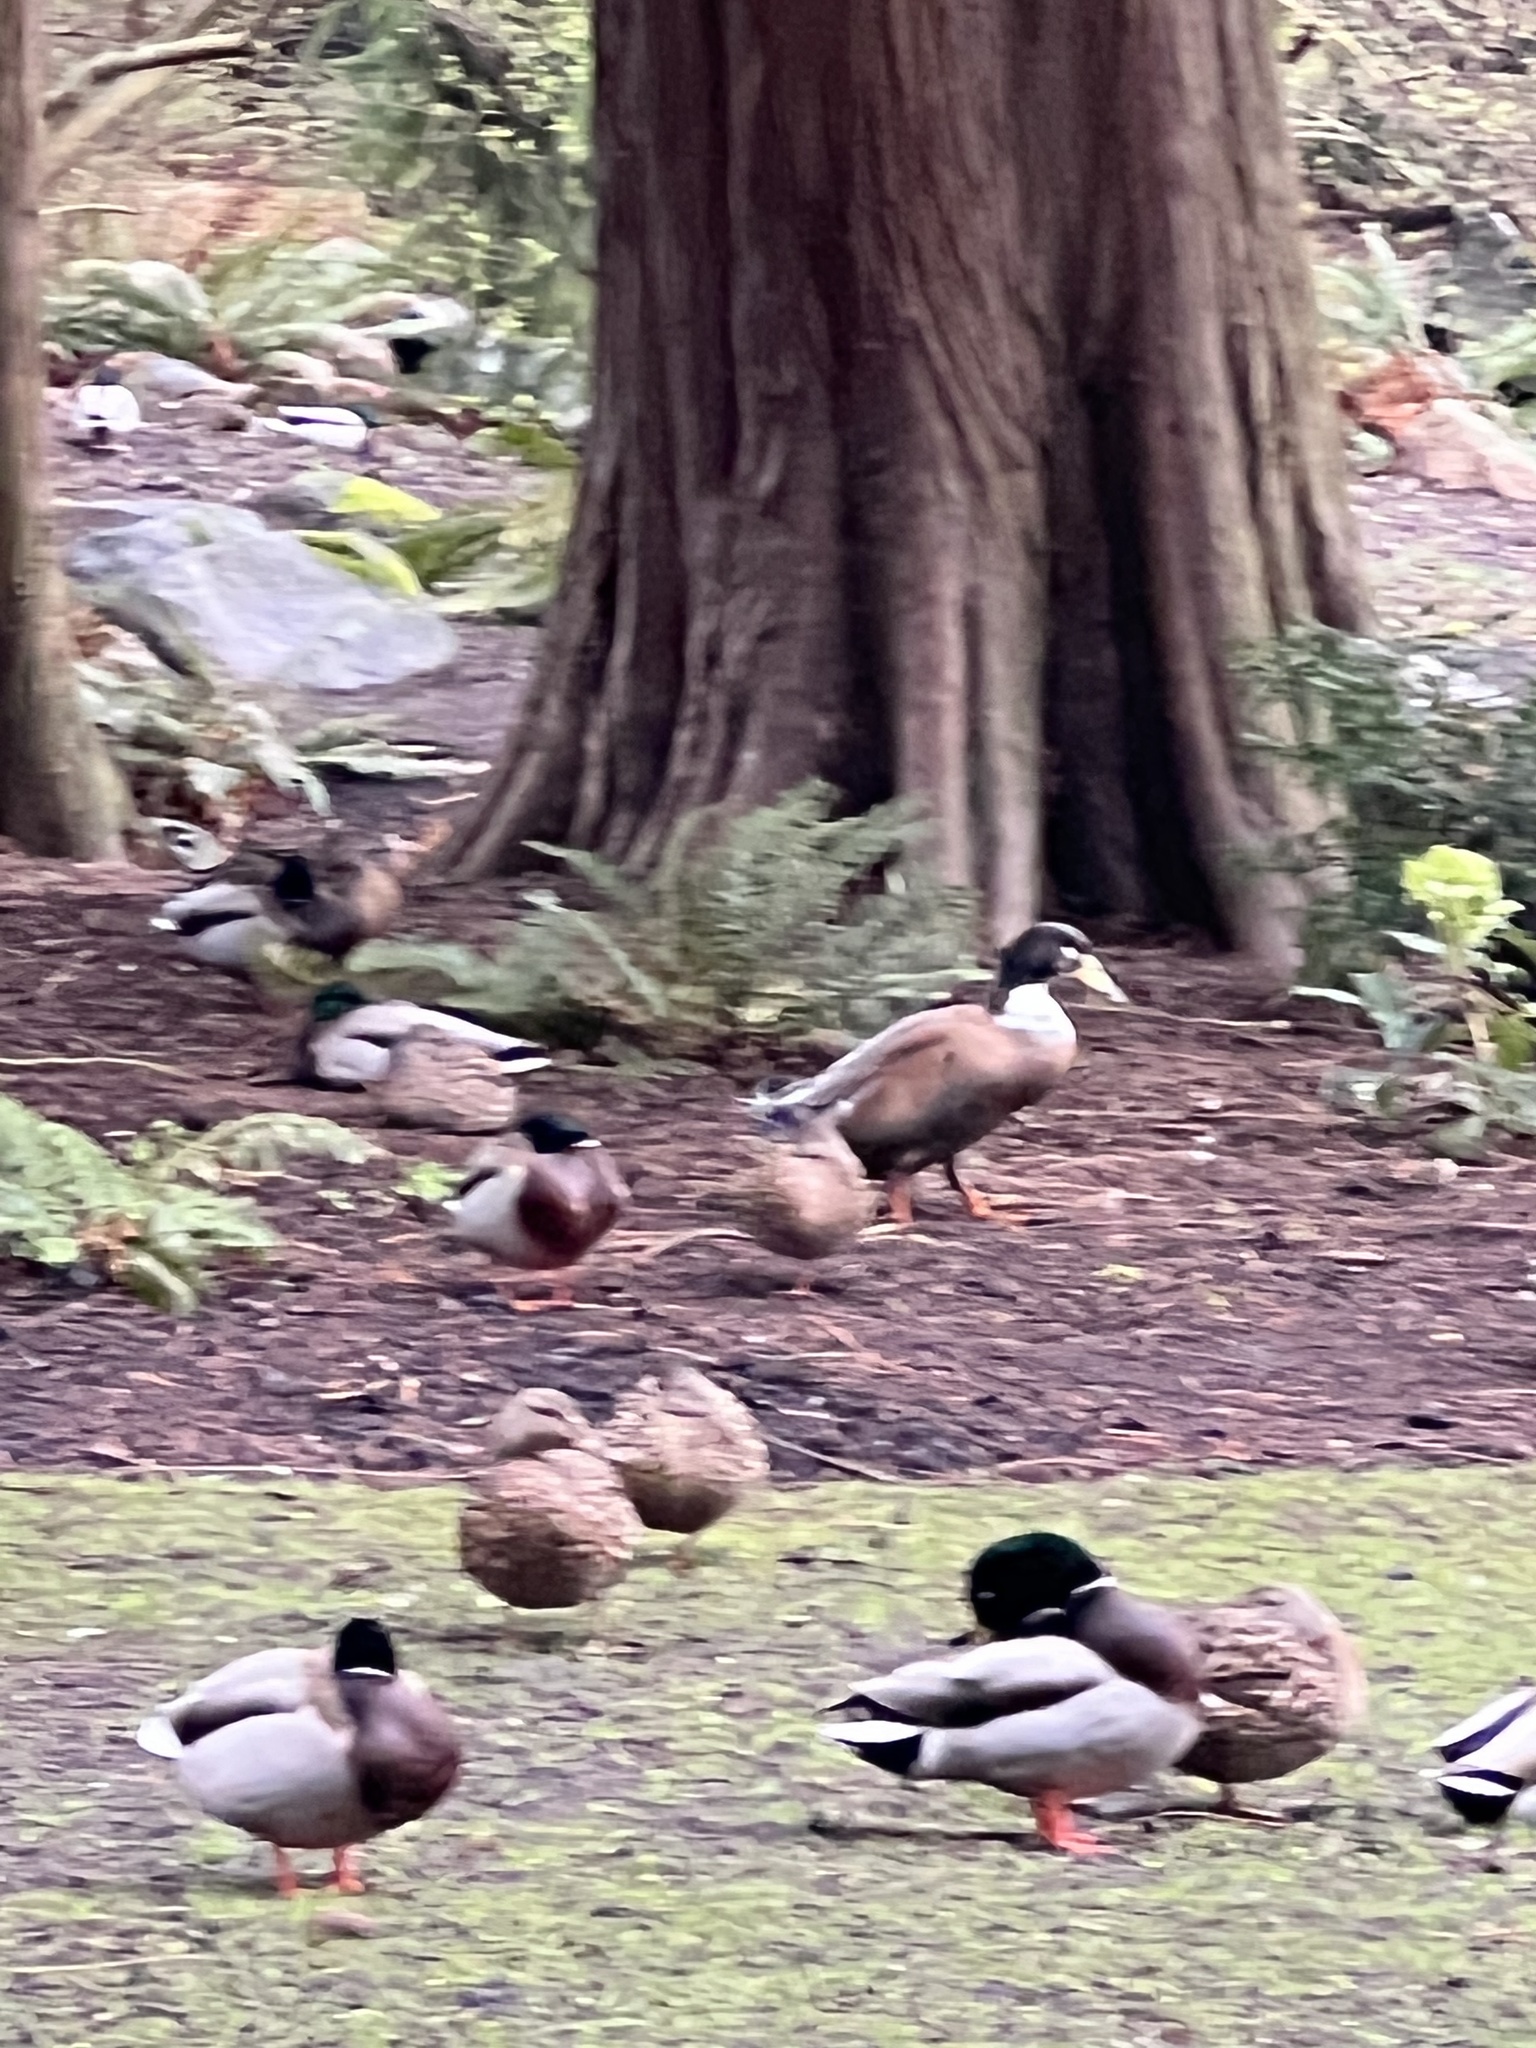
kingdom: Animalia
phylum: Chordata
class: Aves
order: Anseriformes
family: Anatidae
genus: Anas
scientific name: Anas platyrhynchos
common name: Mallard
